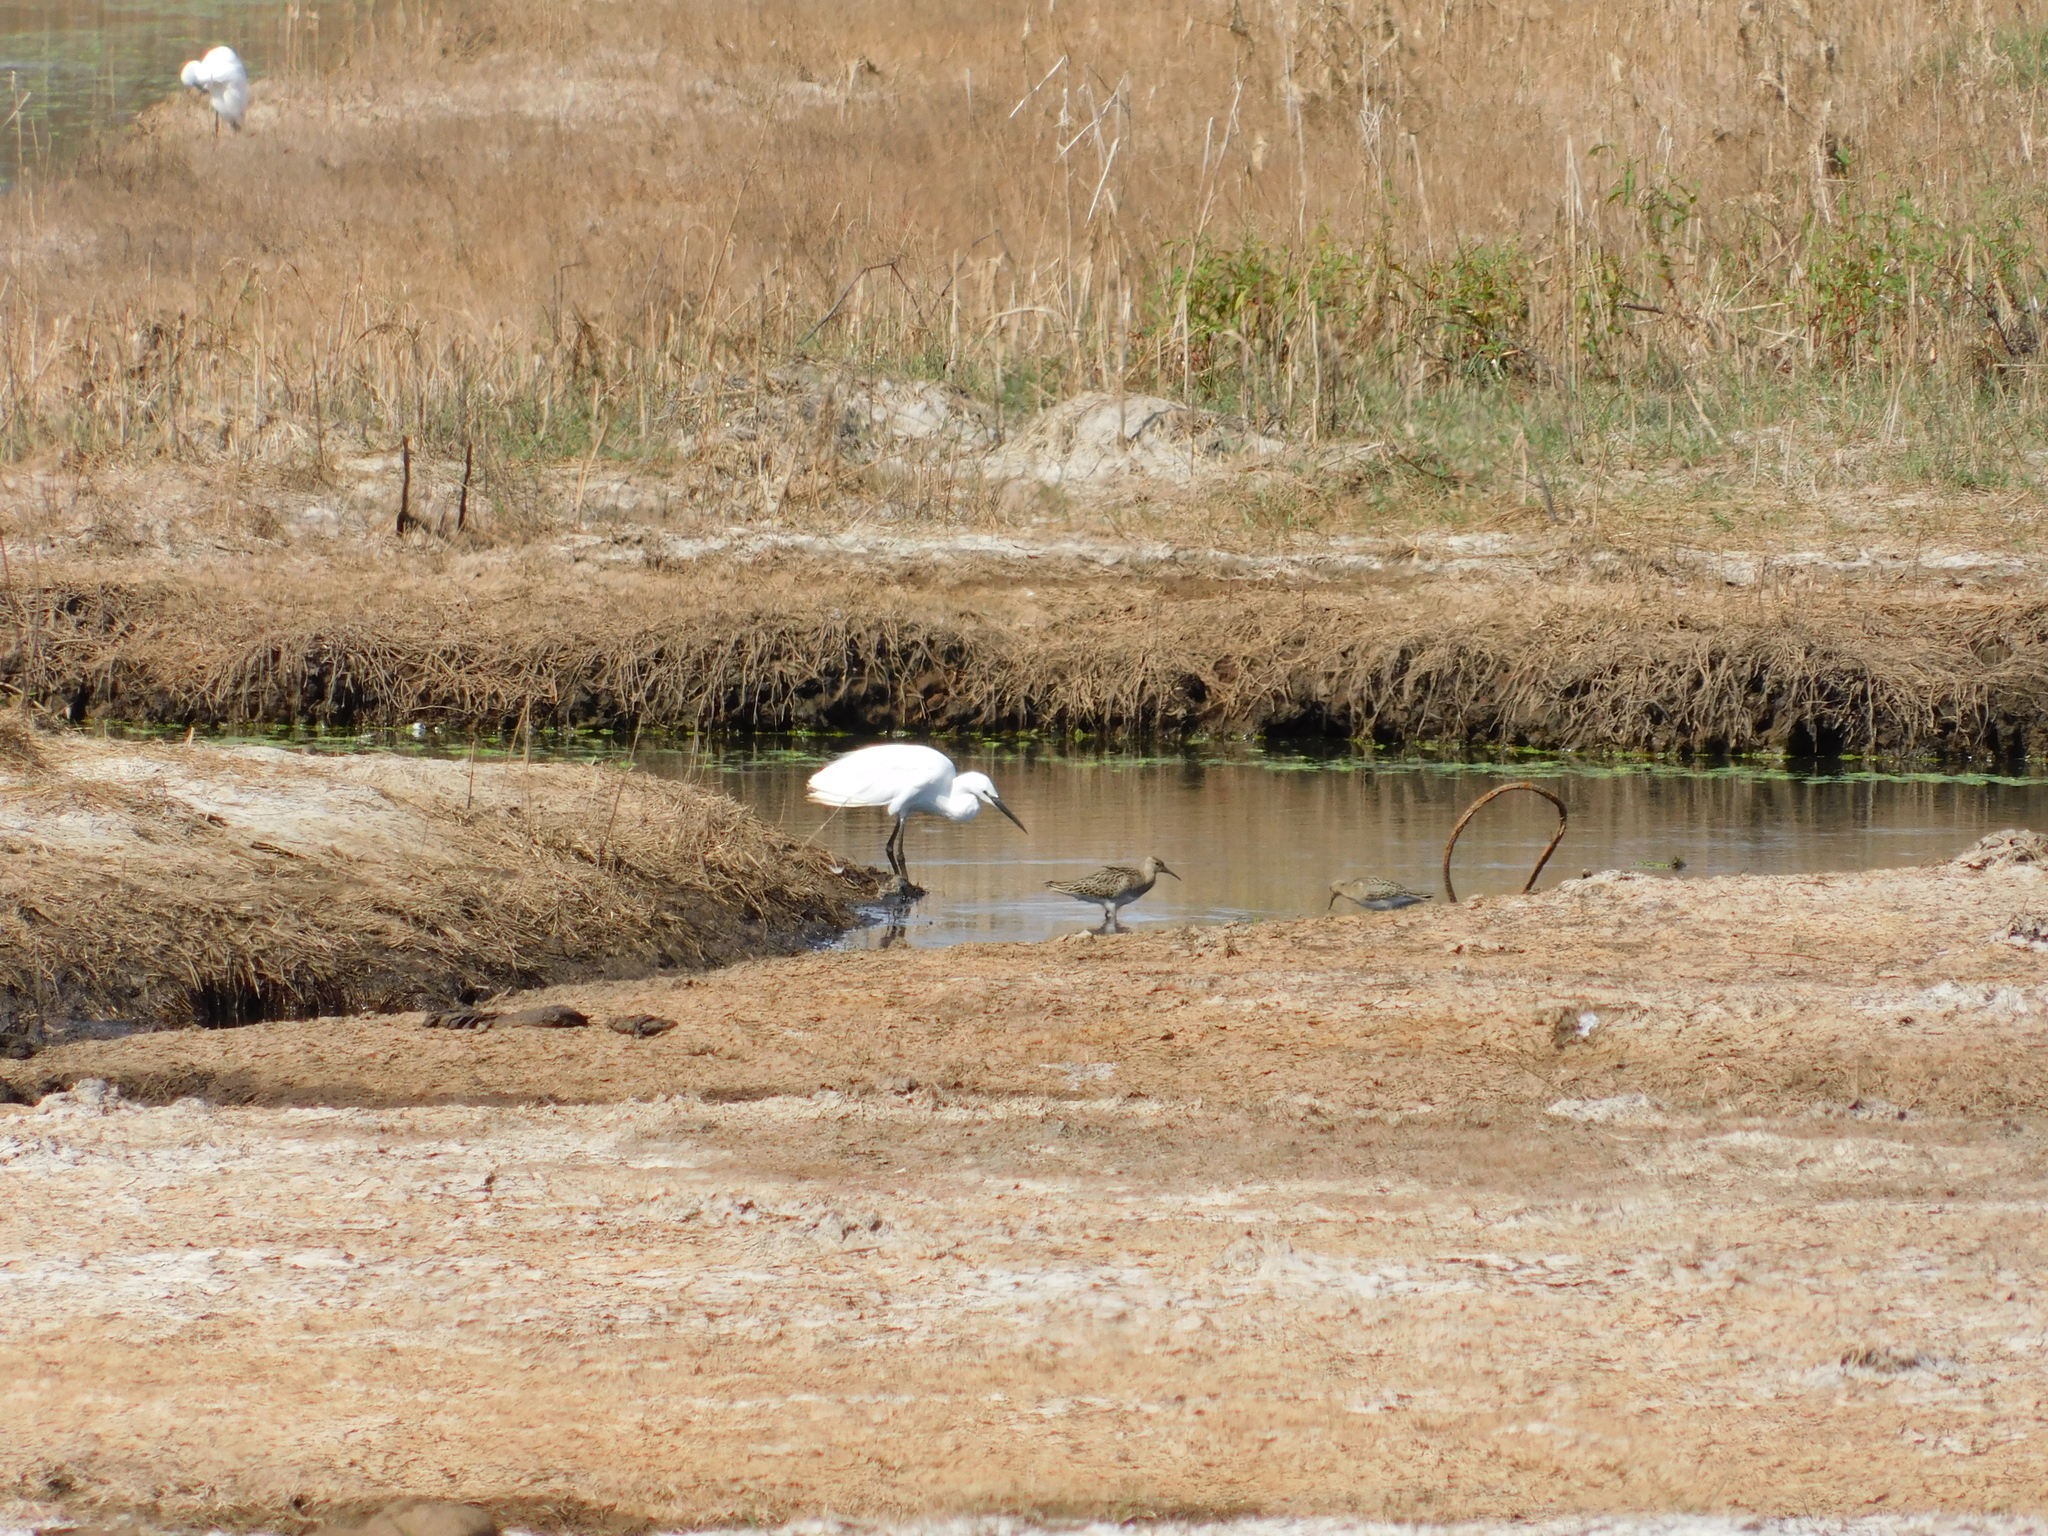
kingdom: Animalia
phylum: Chordata
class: Aves
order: Charadriiformes
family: Scolopacidae
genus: Calidris
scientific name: Calidris pugnax
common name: Ruff
